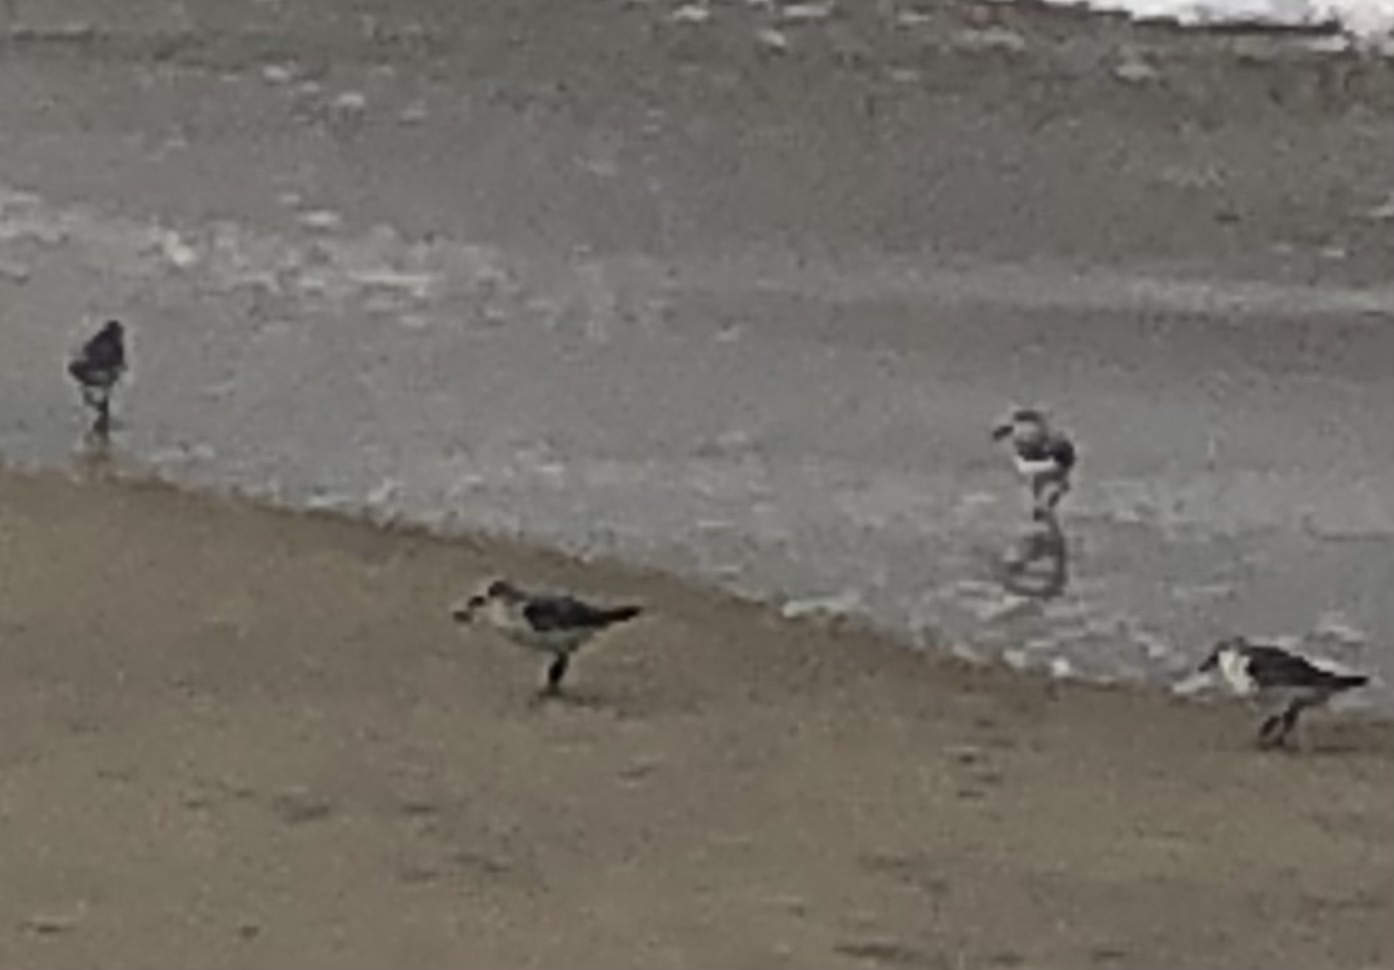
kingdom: Animalia
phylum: Chordata
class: Aves
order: Charadriiformes
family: Scolopacidae
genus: Calidris
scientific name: Calidris alba
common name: Sanderling
